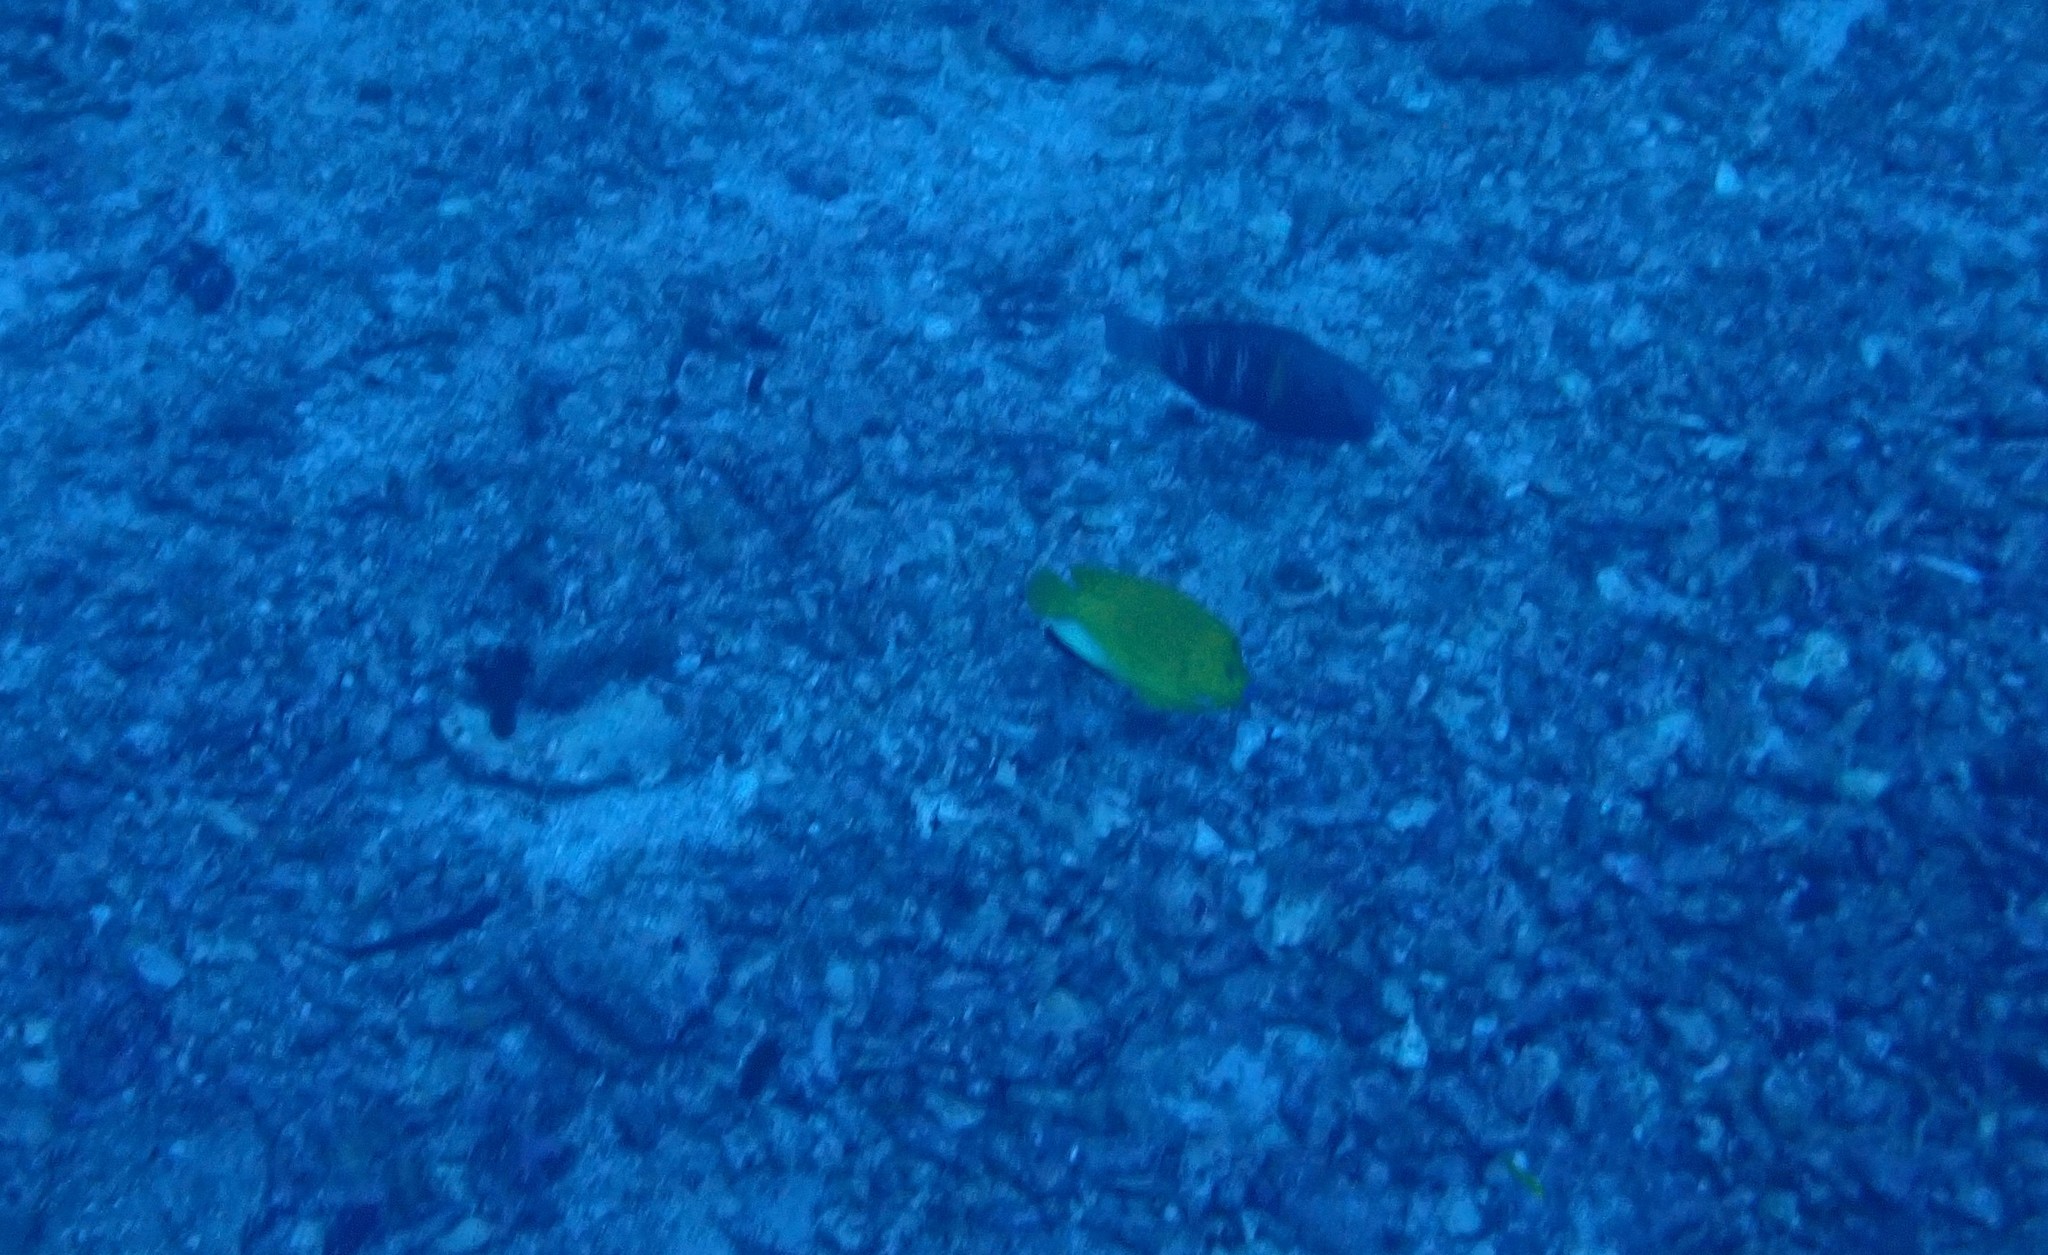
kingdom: Animalia
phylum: Chordata
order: Perciformes
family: Pomacanthidae
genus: Apolemichthys
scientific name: Apolemichthys trimaculatus
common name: Threespot angelfish
